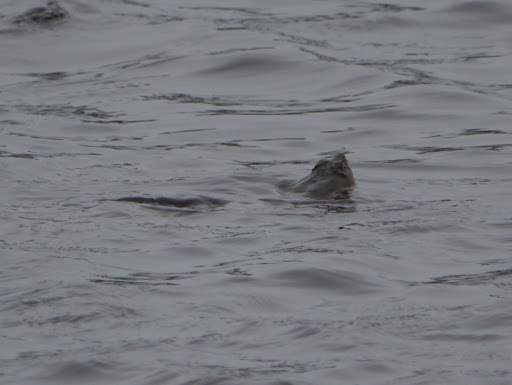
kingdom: Animalia
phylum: Chordata
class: Testudines
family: Chelydridae
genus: Chelydra
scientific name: Chelydra serpentina
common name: Common snapping turtle
